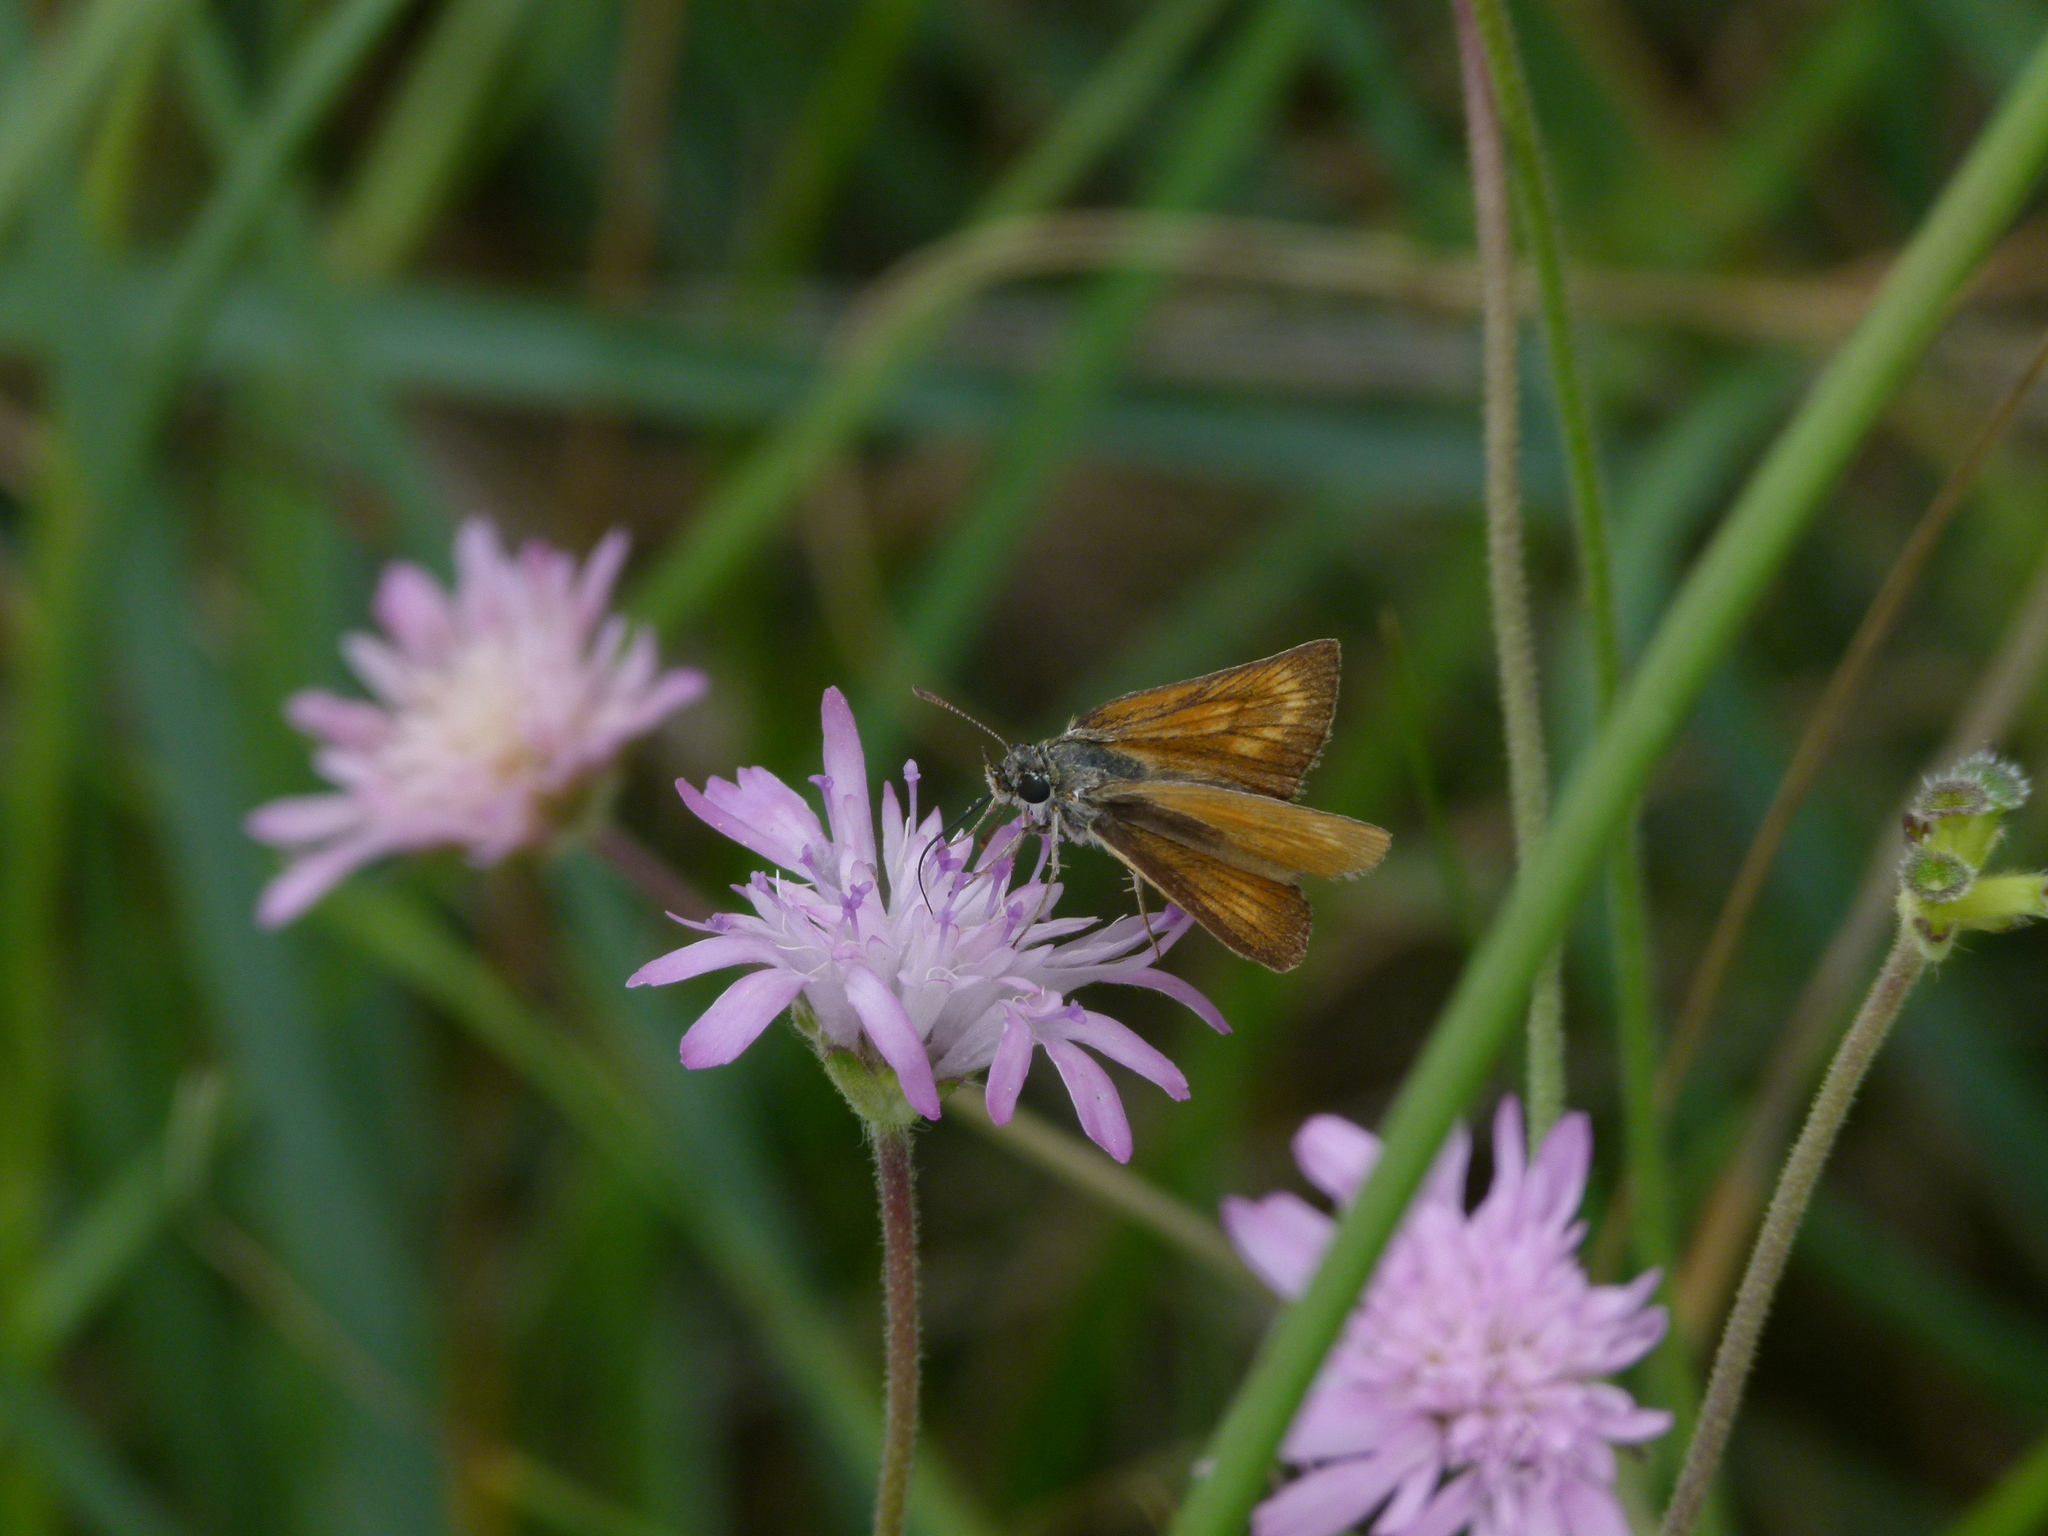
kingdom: Animalia
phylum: Arthropoda
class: Insecta
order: Lepidoptera
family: Hesperiidae
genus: Thymelicus
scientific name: Thymelicus acteon
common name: Lulworth skipper
